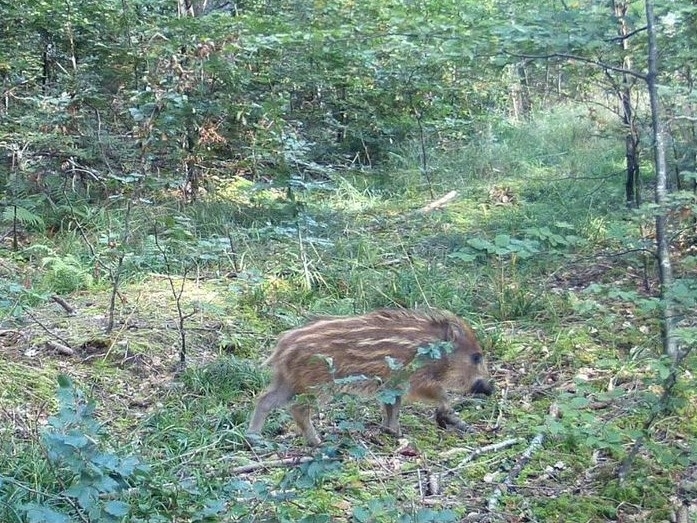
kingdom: Animalia
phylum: Chordata
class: Mammalia
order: Artiodactyla
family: Suidae
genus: Sus
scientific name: Sus scrofa
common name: Wild boar
